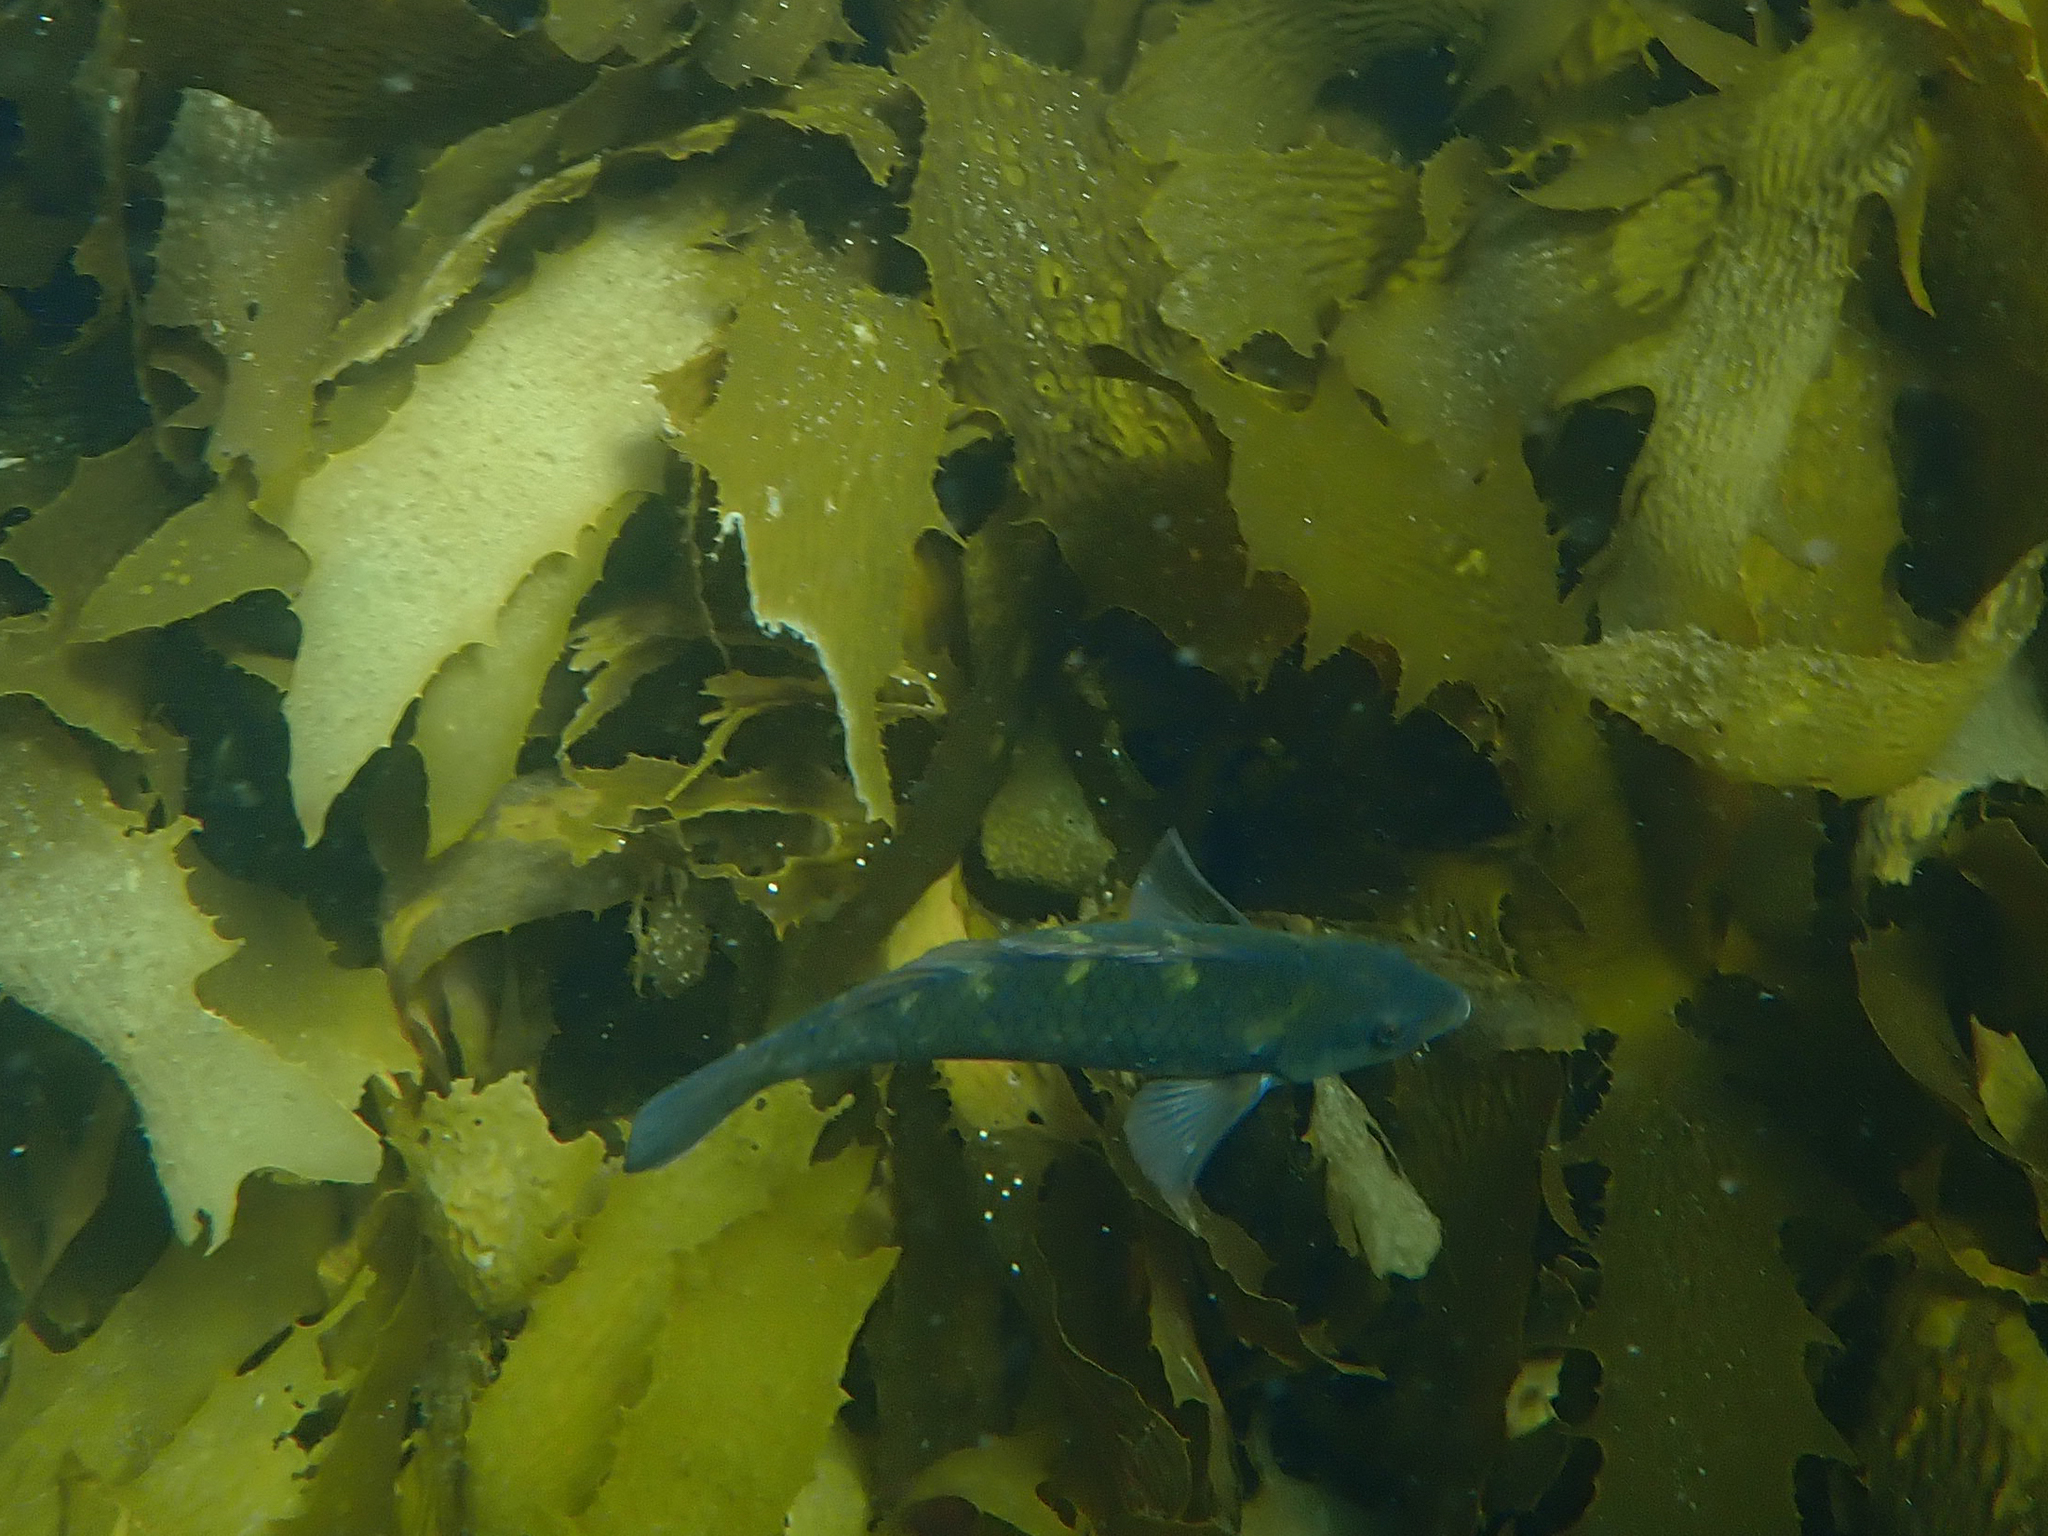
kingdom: Animalia
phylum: Chordata
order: Perciformes
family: Labridae
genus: Notolabrus
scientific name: Notolabrus fucicola
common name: Banded parrotfish
